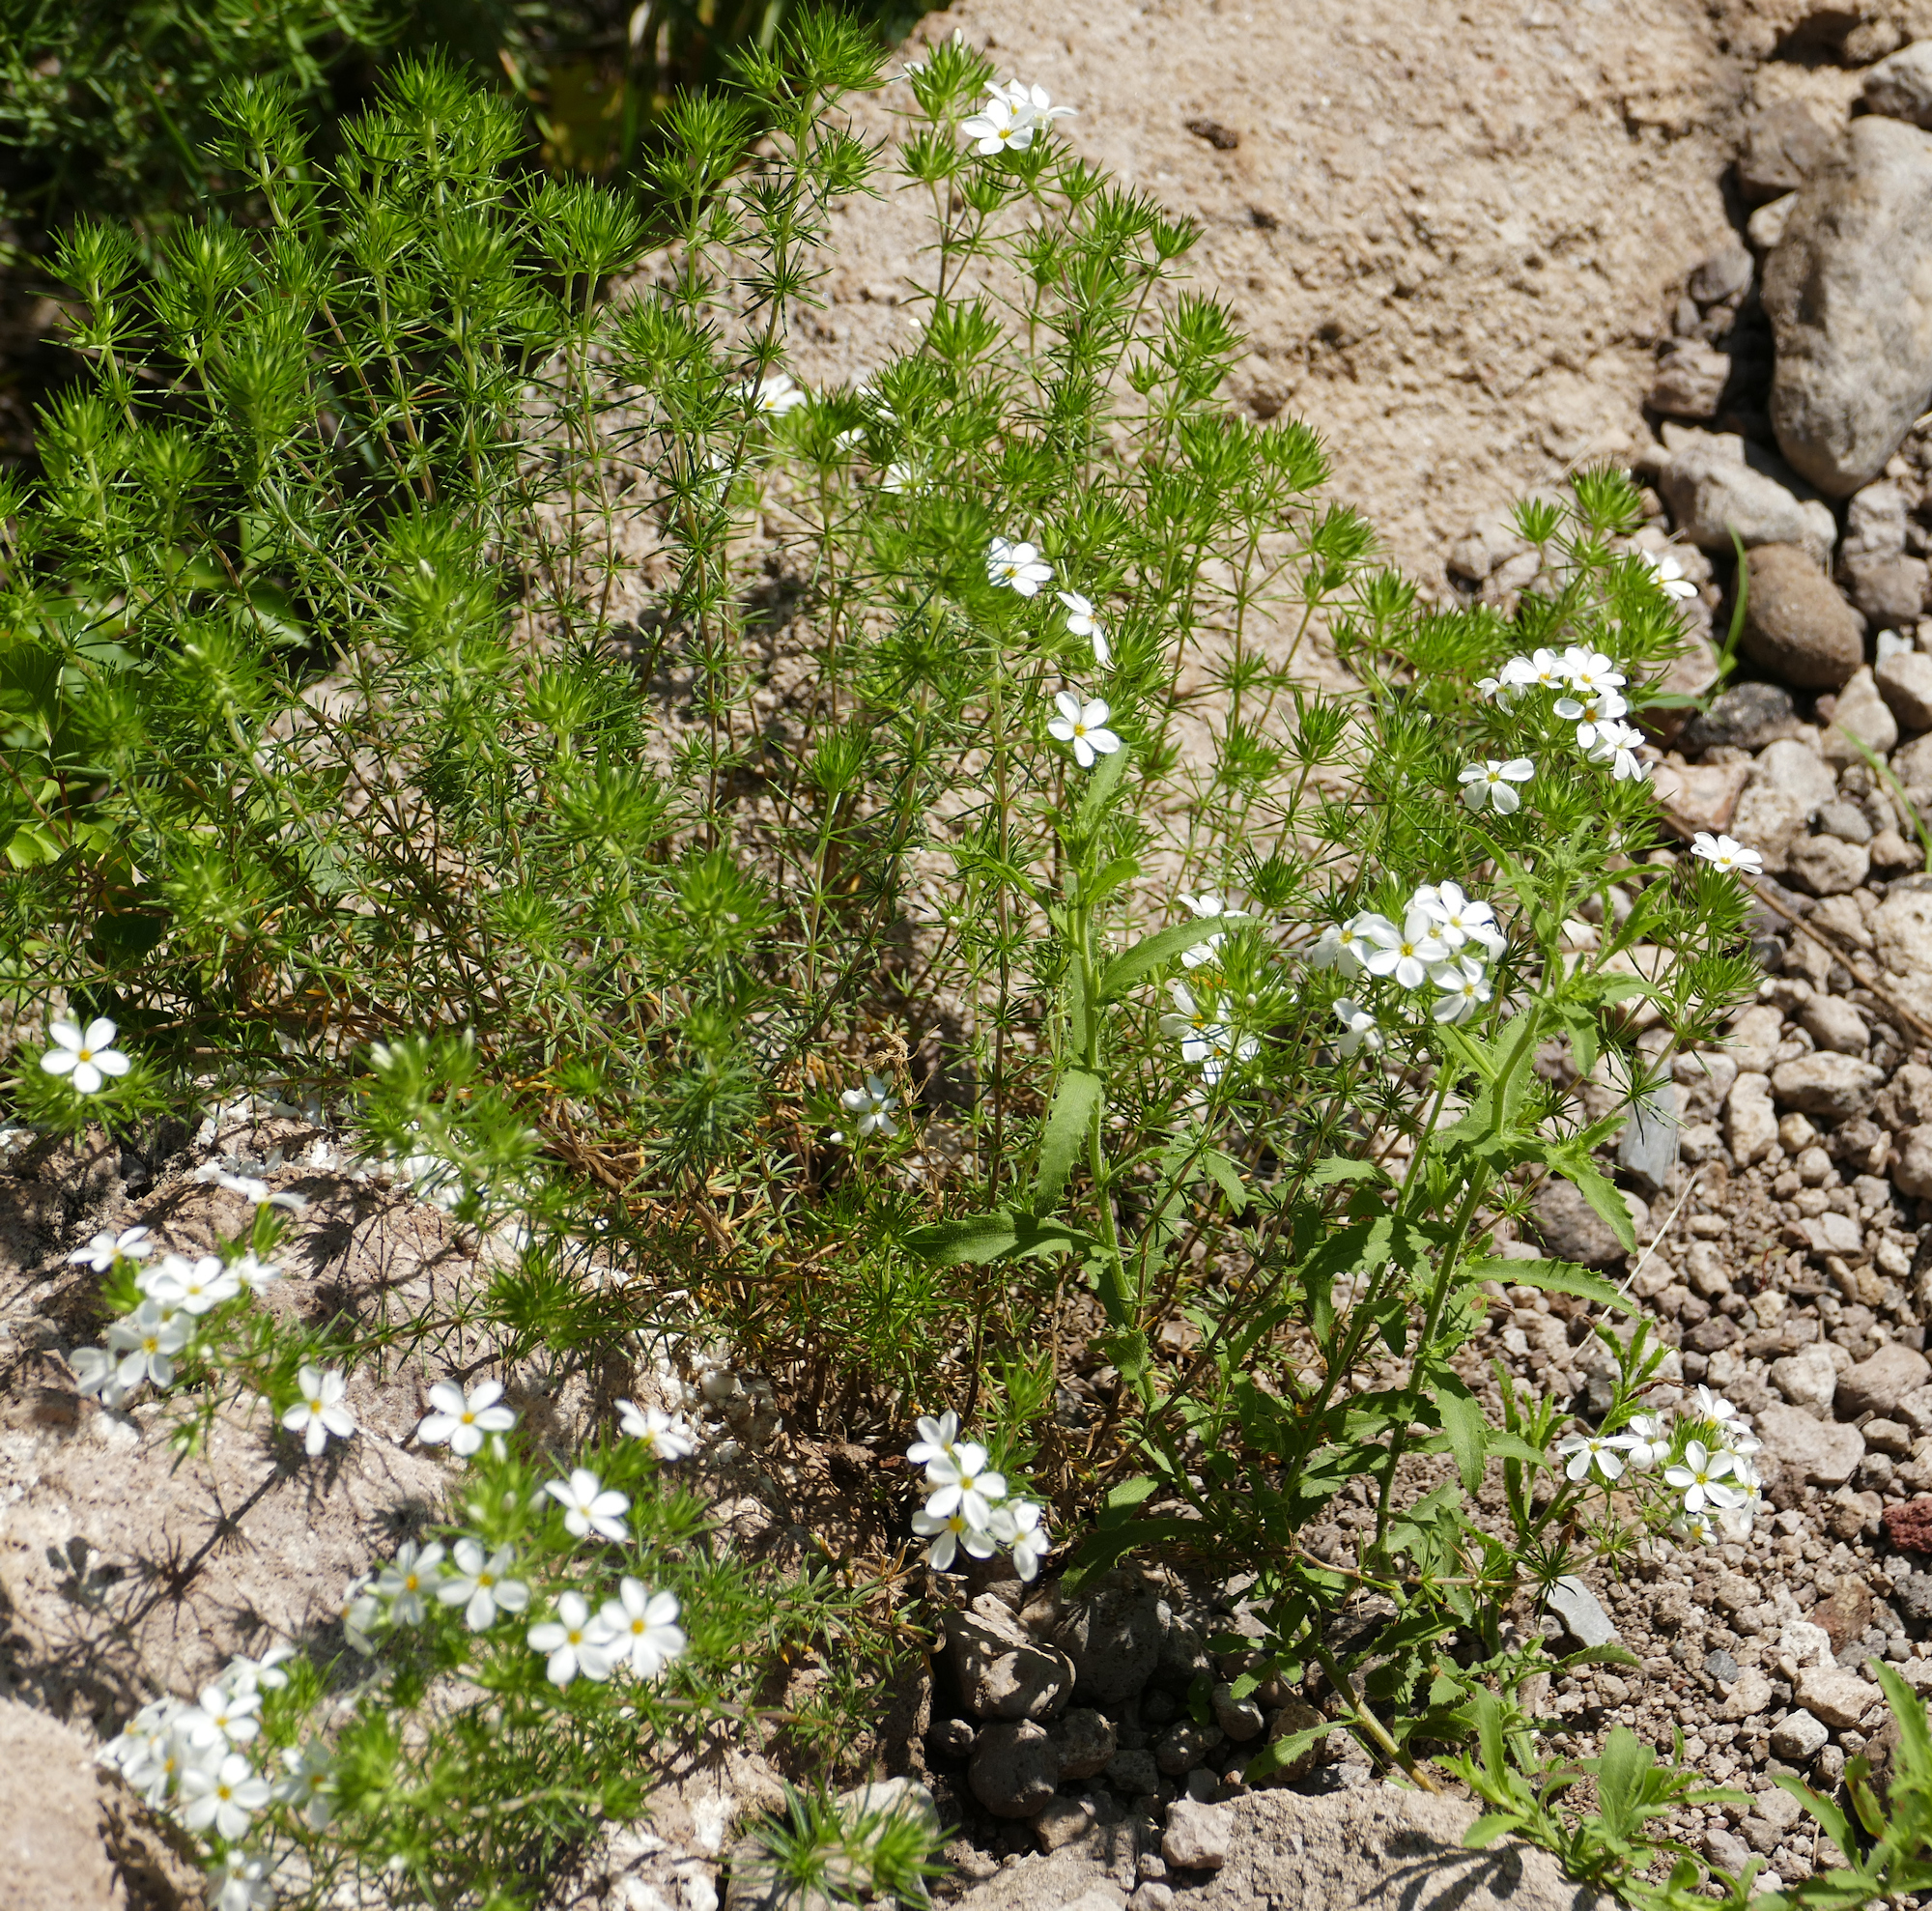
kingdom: Plantae
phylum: Tracheophyta
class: Magnoliopsida
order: Ericales
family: Polemoniaceae
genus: Leptosiphon
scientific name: Leptosiphon nuttallii
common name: Nuttall's linanthus
